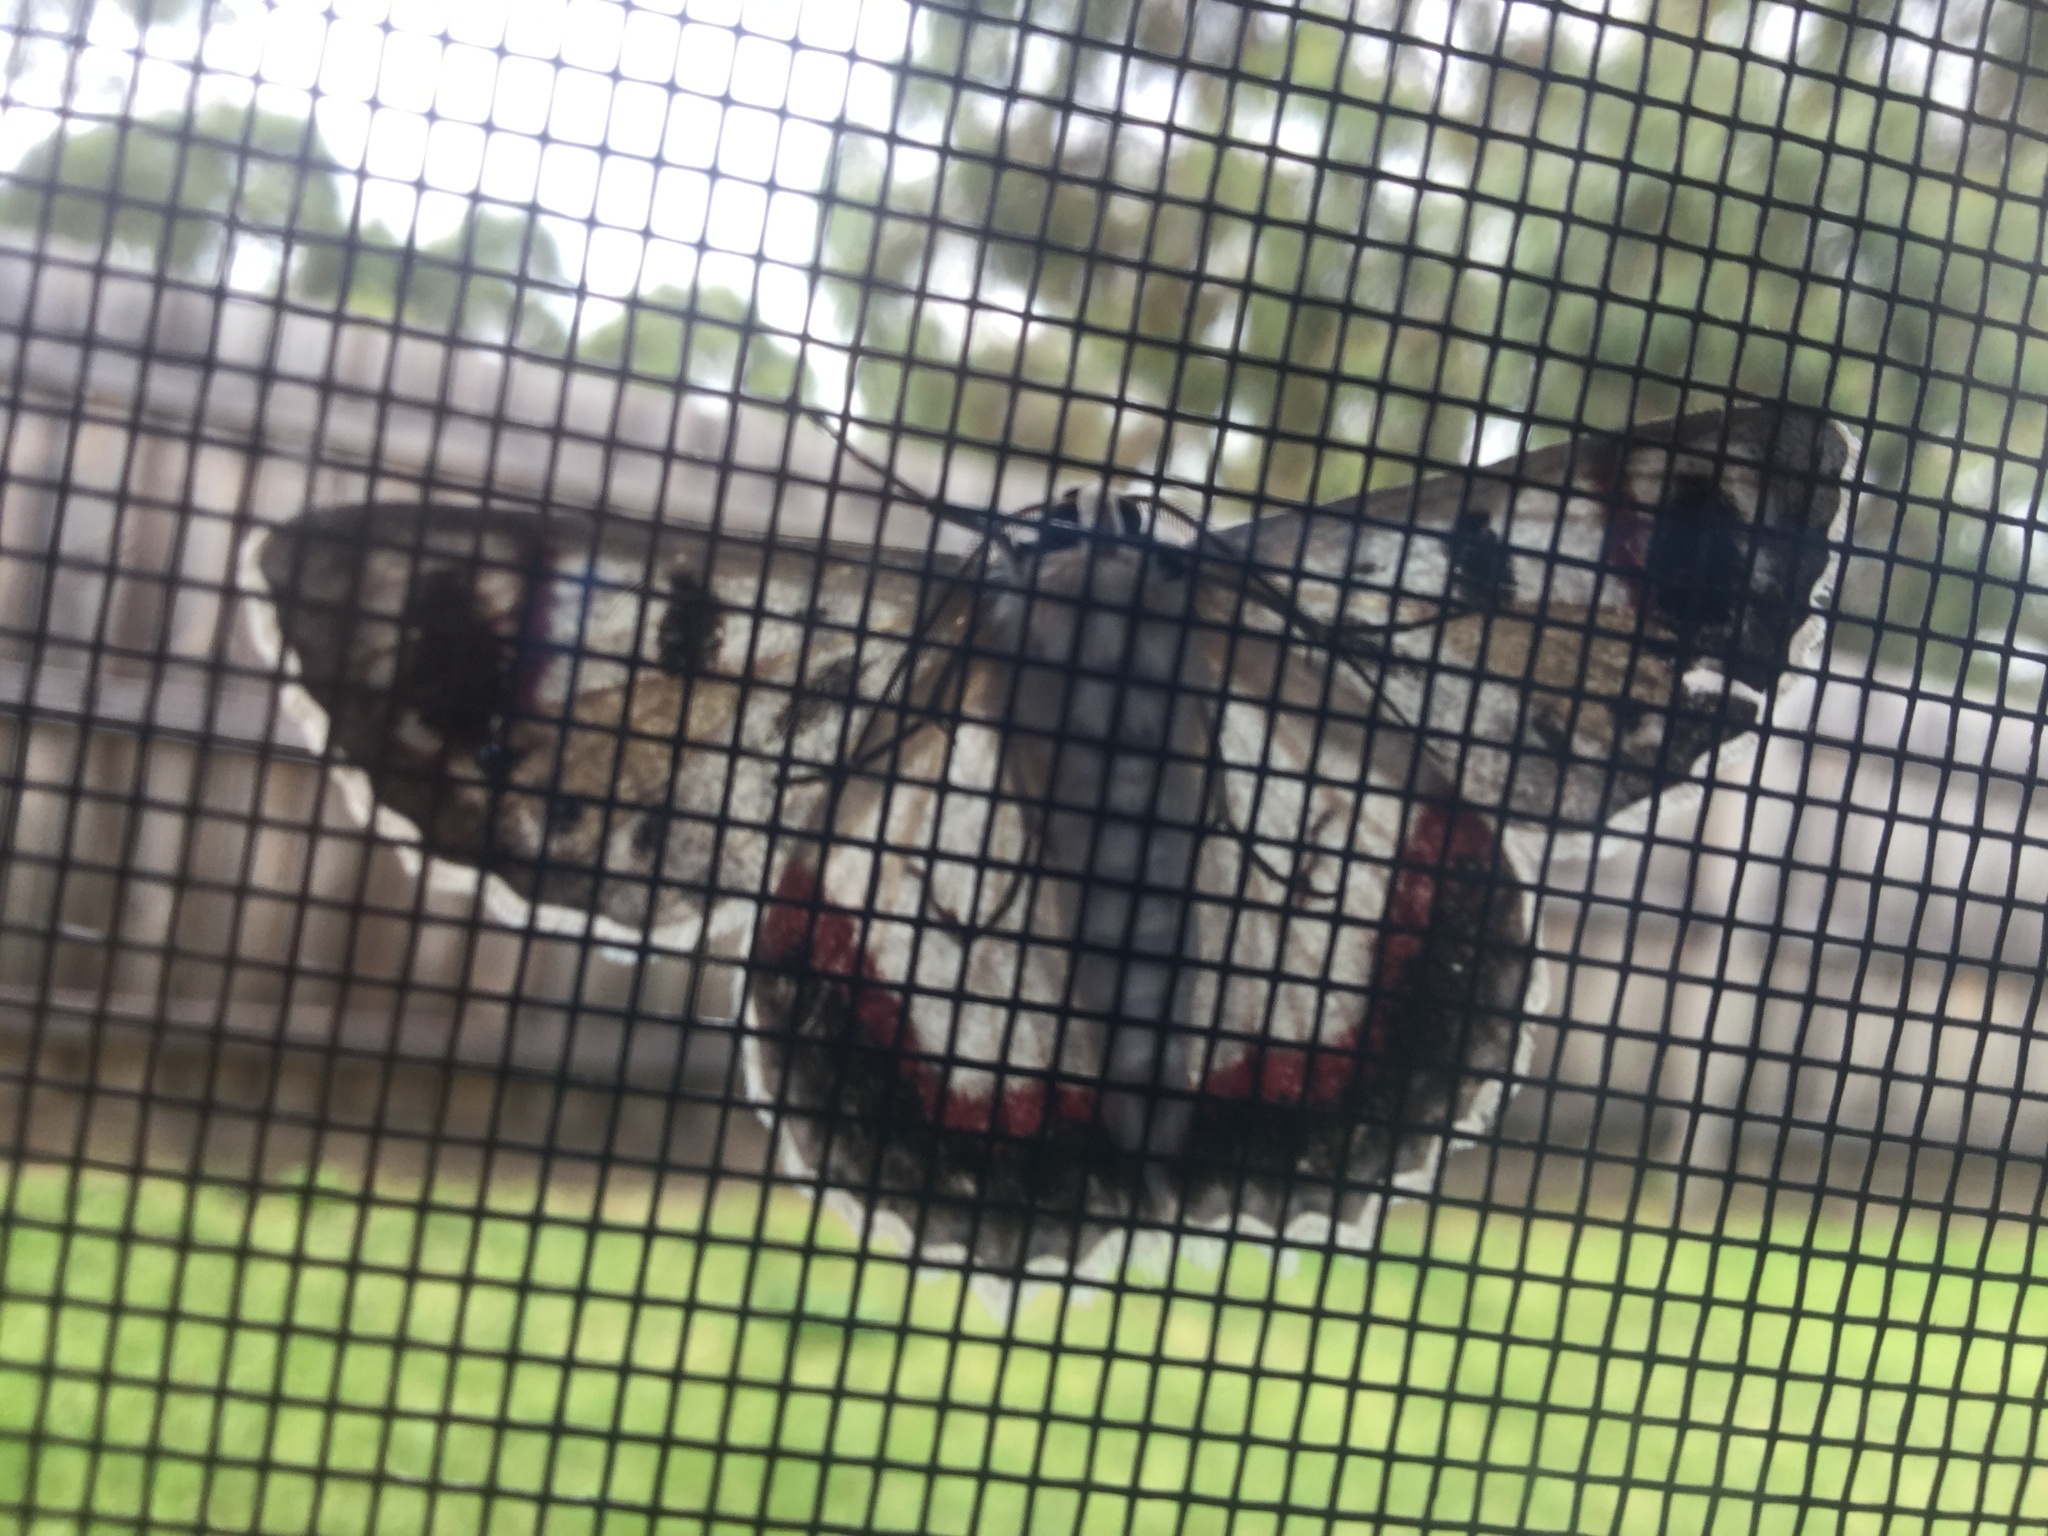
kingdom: Animalia
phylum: Arthropoda
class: Insecta
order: Lepidoptera
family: Geometridae
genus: Crypsiphona
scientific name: Crypsiphona ocultaria
